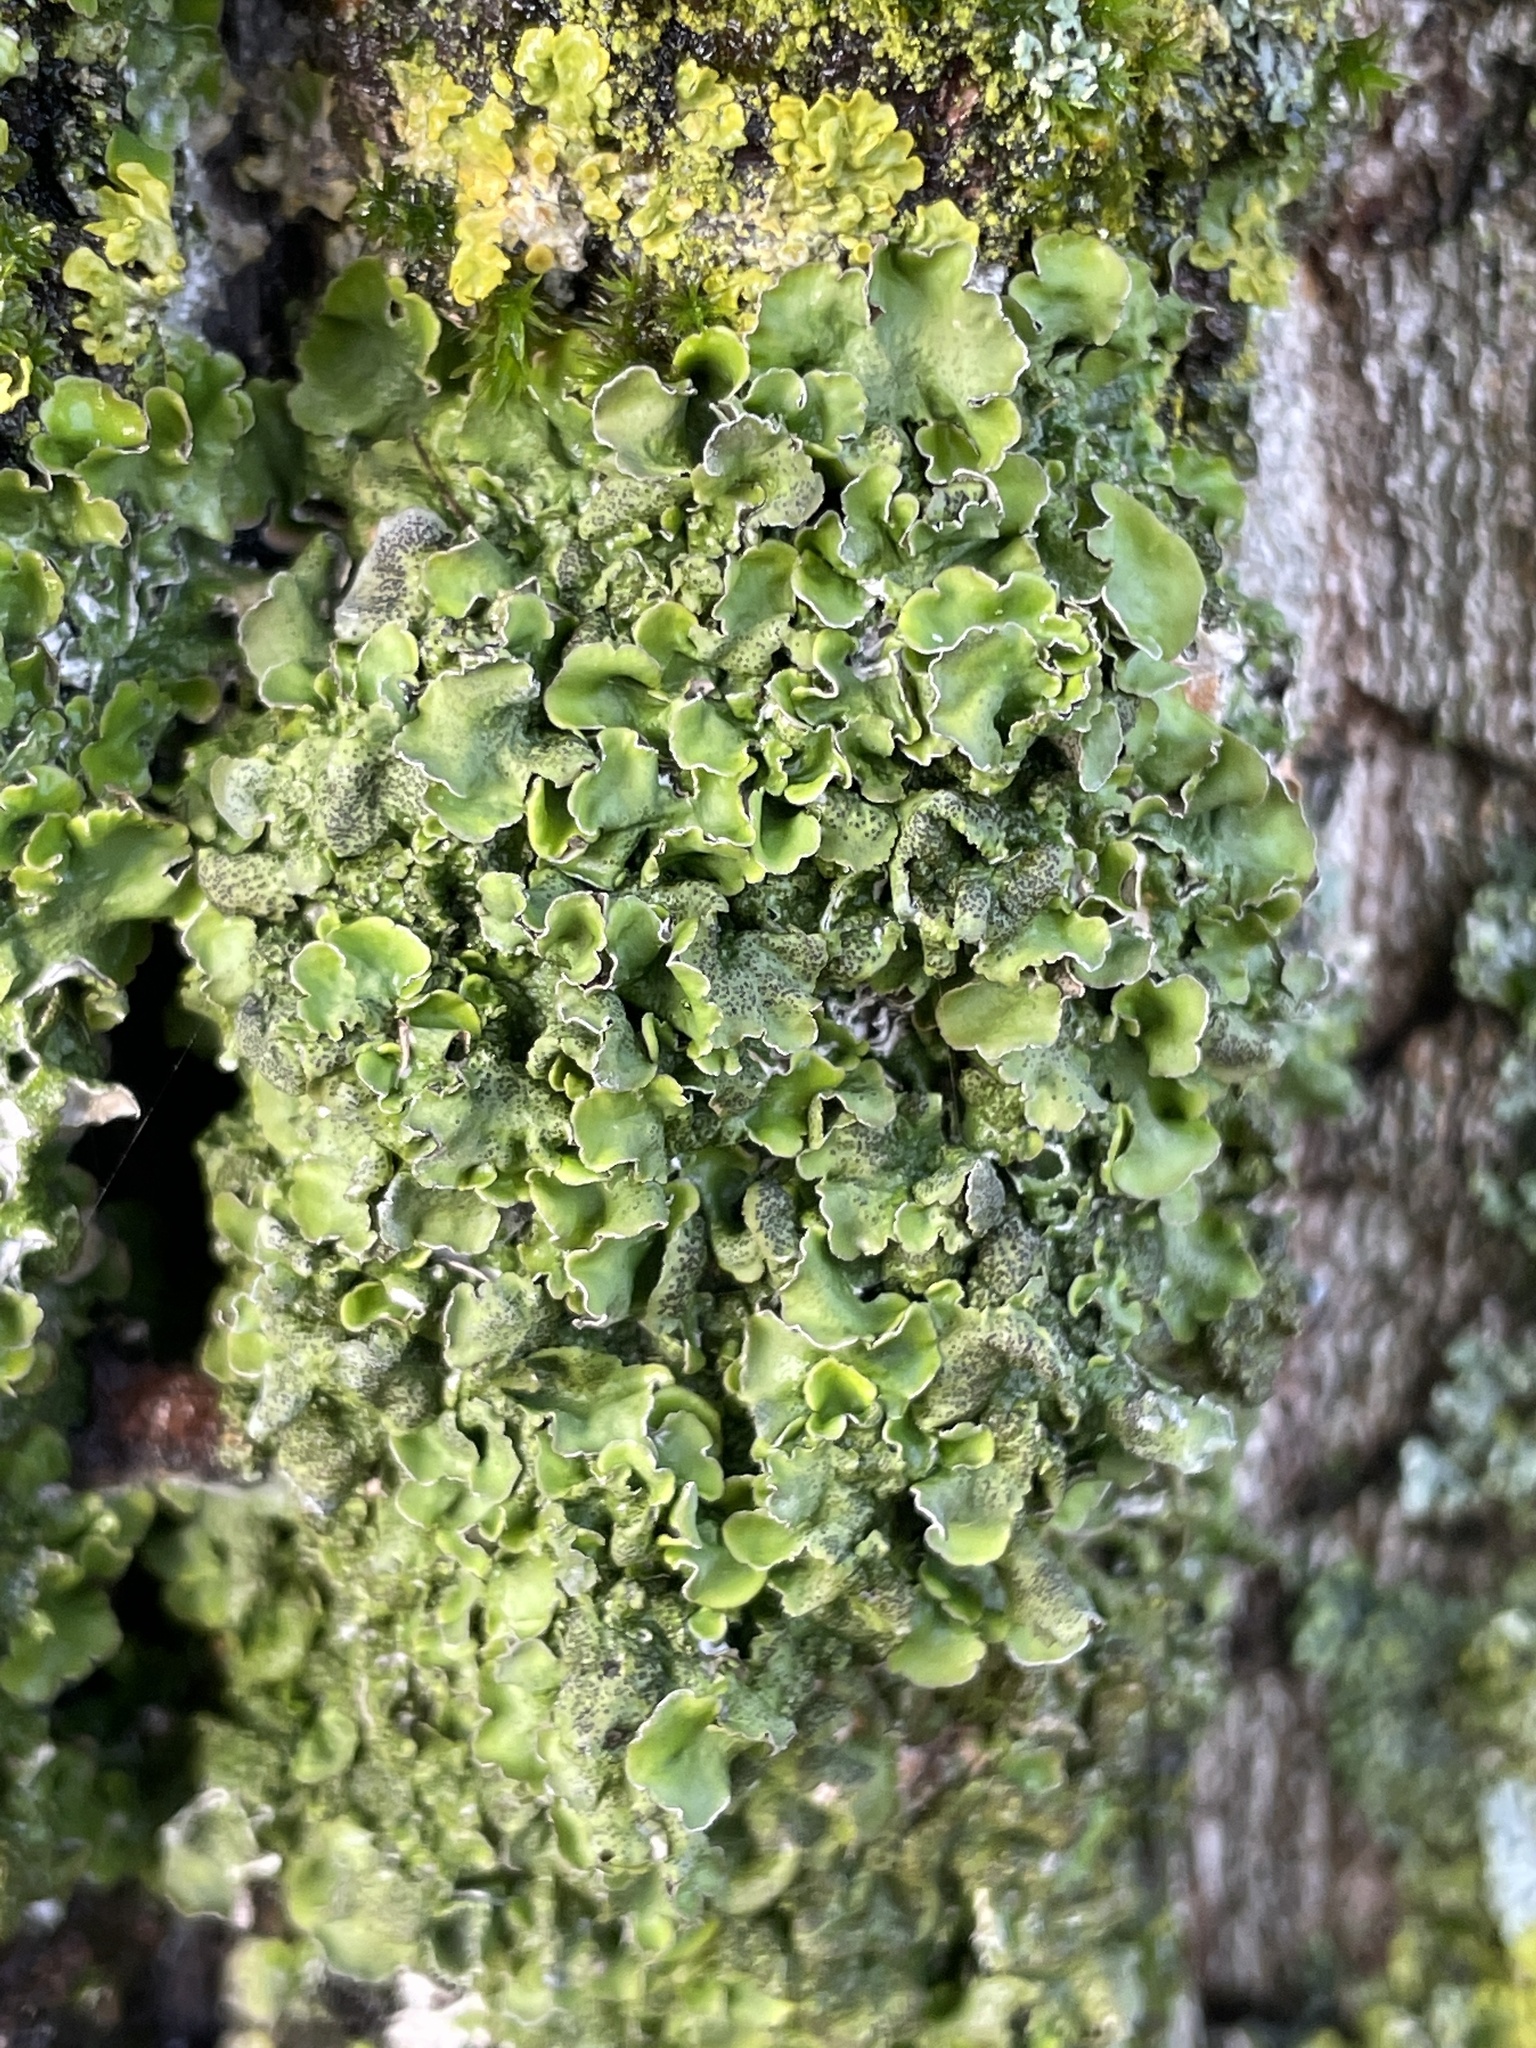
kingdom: Fungi
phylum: Ascomycota
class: Lecanoromycetes
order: Lecanorales
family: Parmeliaceae
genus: Pleurosticta
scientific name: Pleurosticta acetabulum
